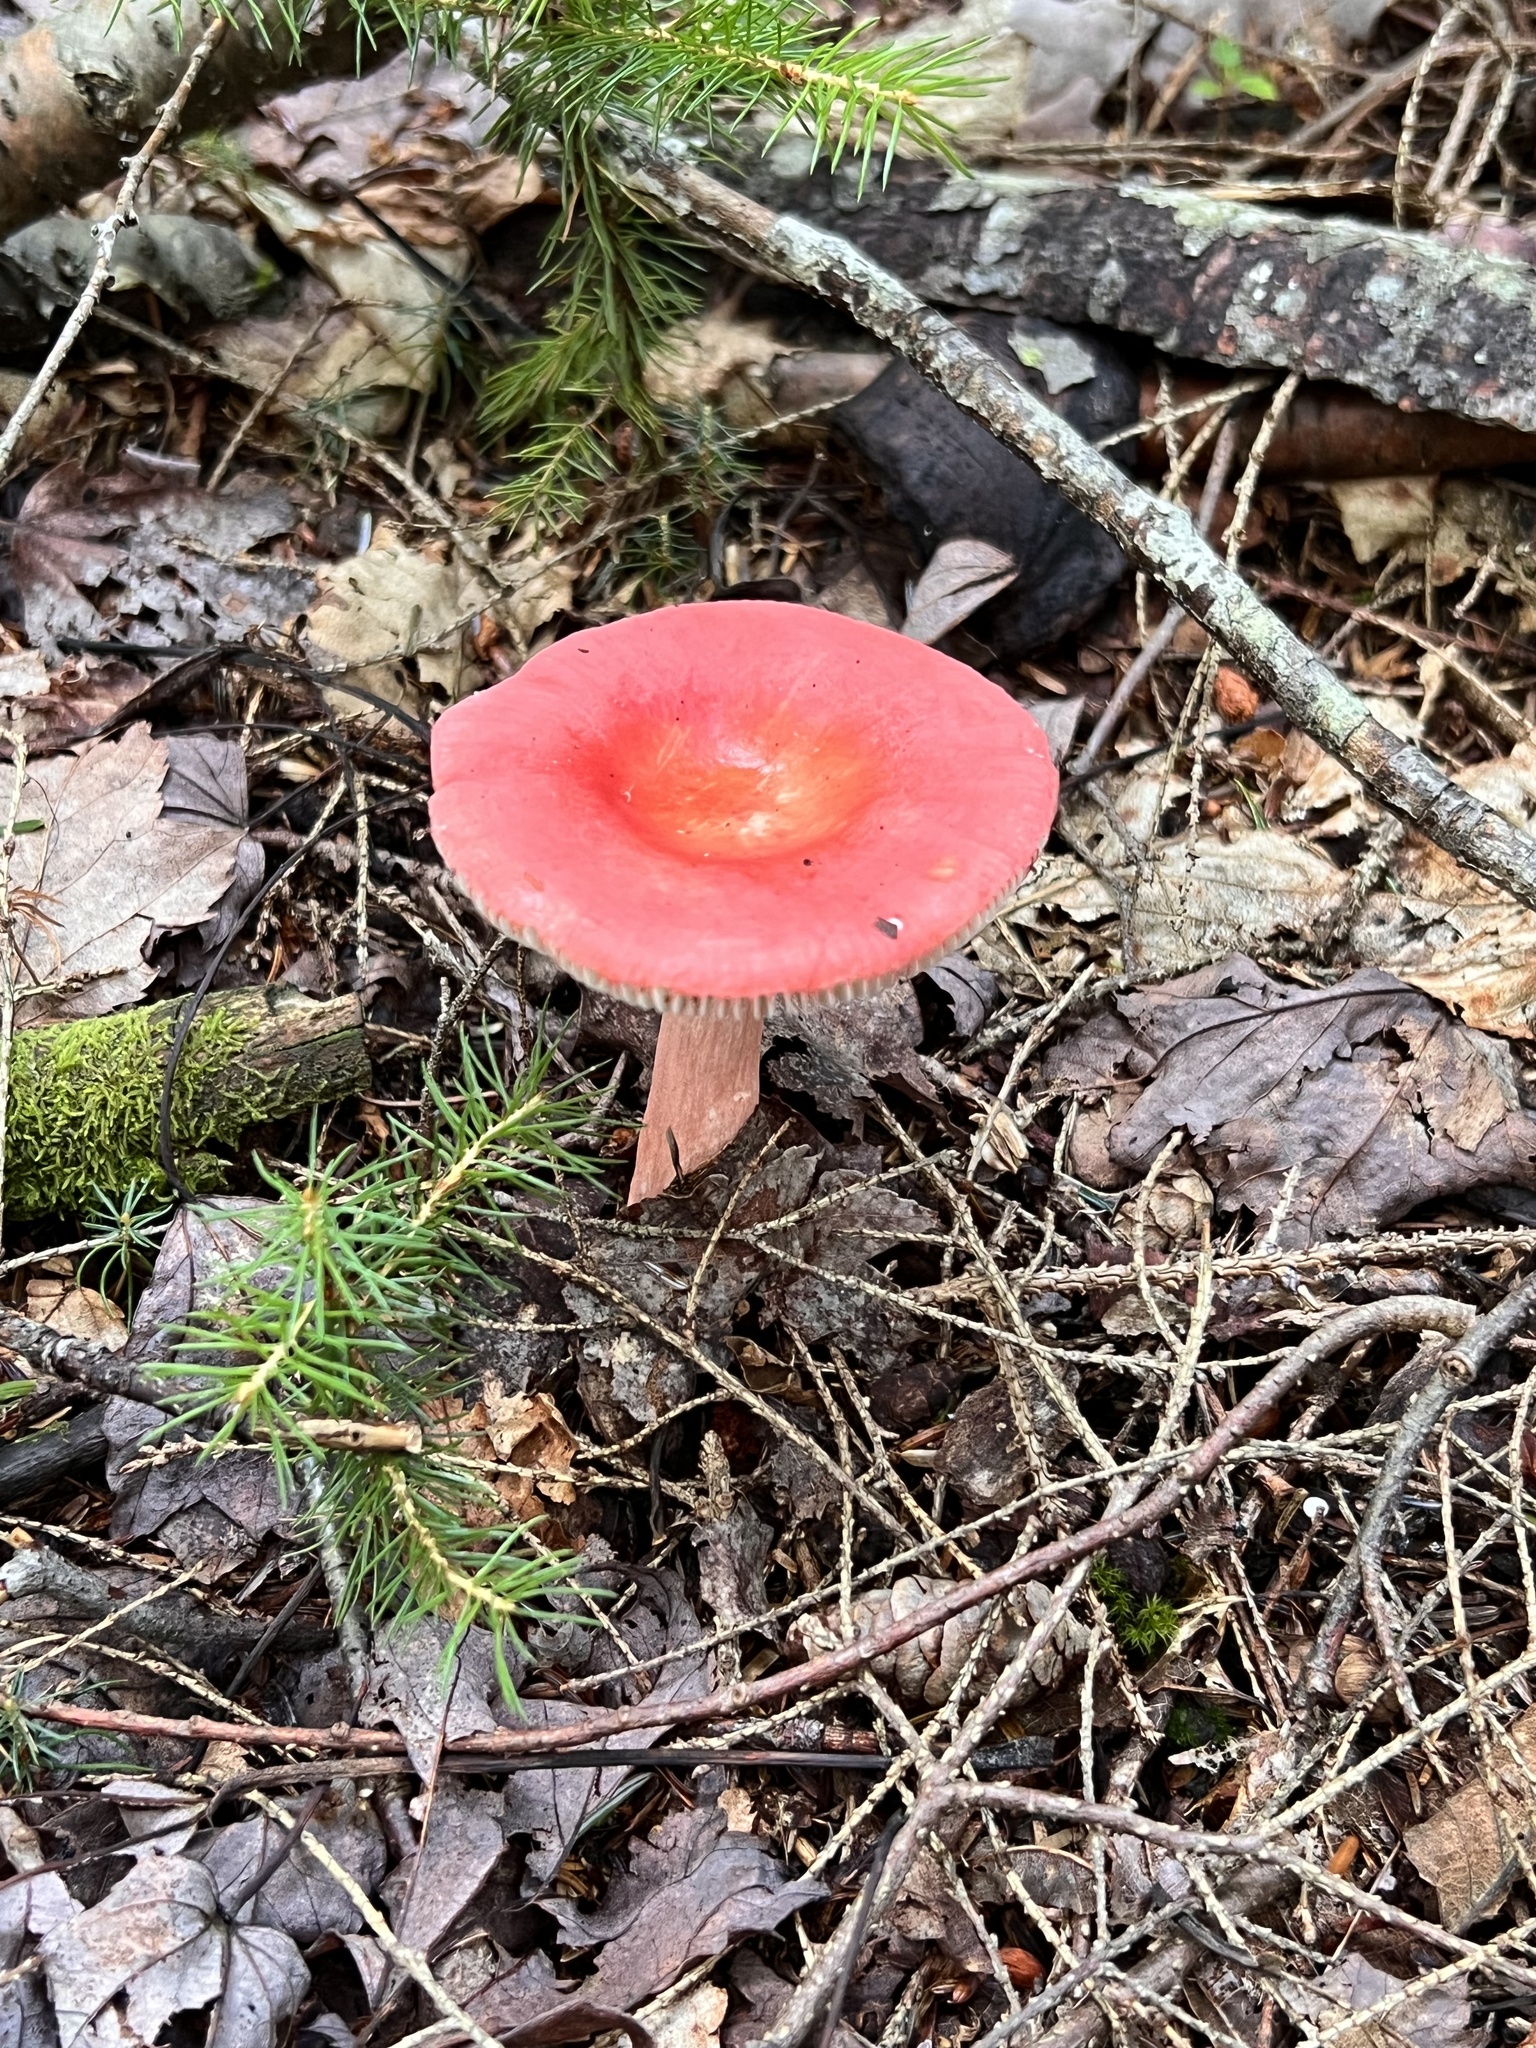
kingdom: Fungi
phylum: Basidiomycota
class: Agaricomycetes
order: Russulales
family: Russulaceae
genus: Russula
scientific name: Russula peckii
